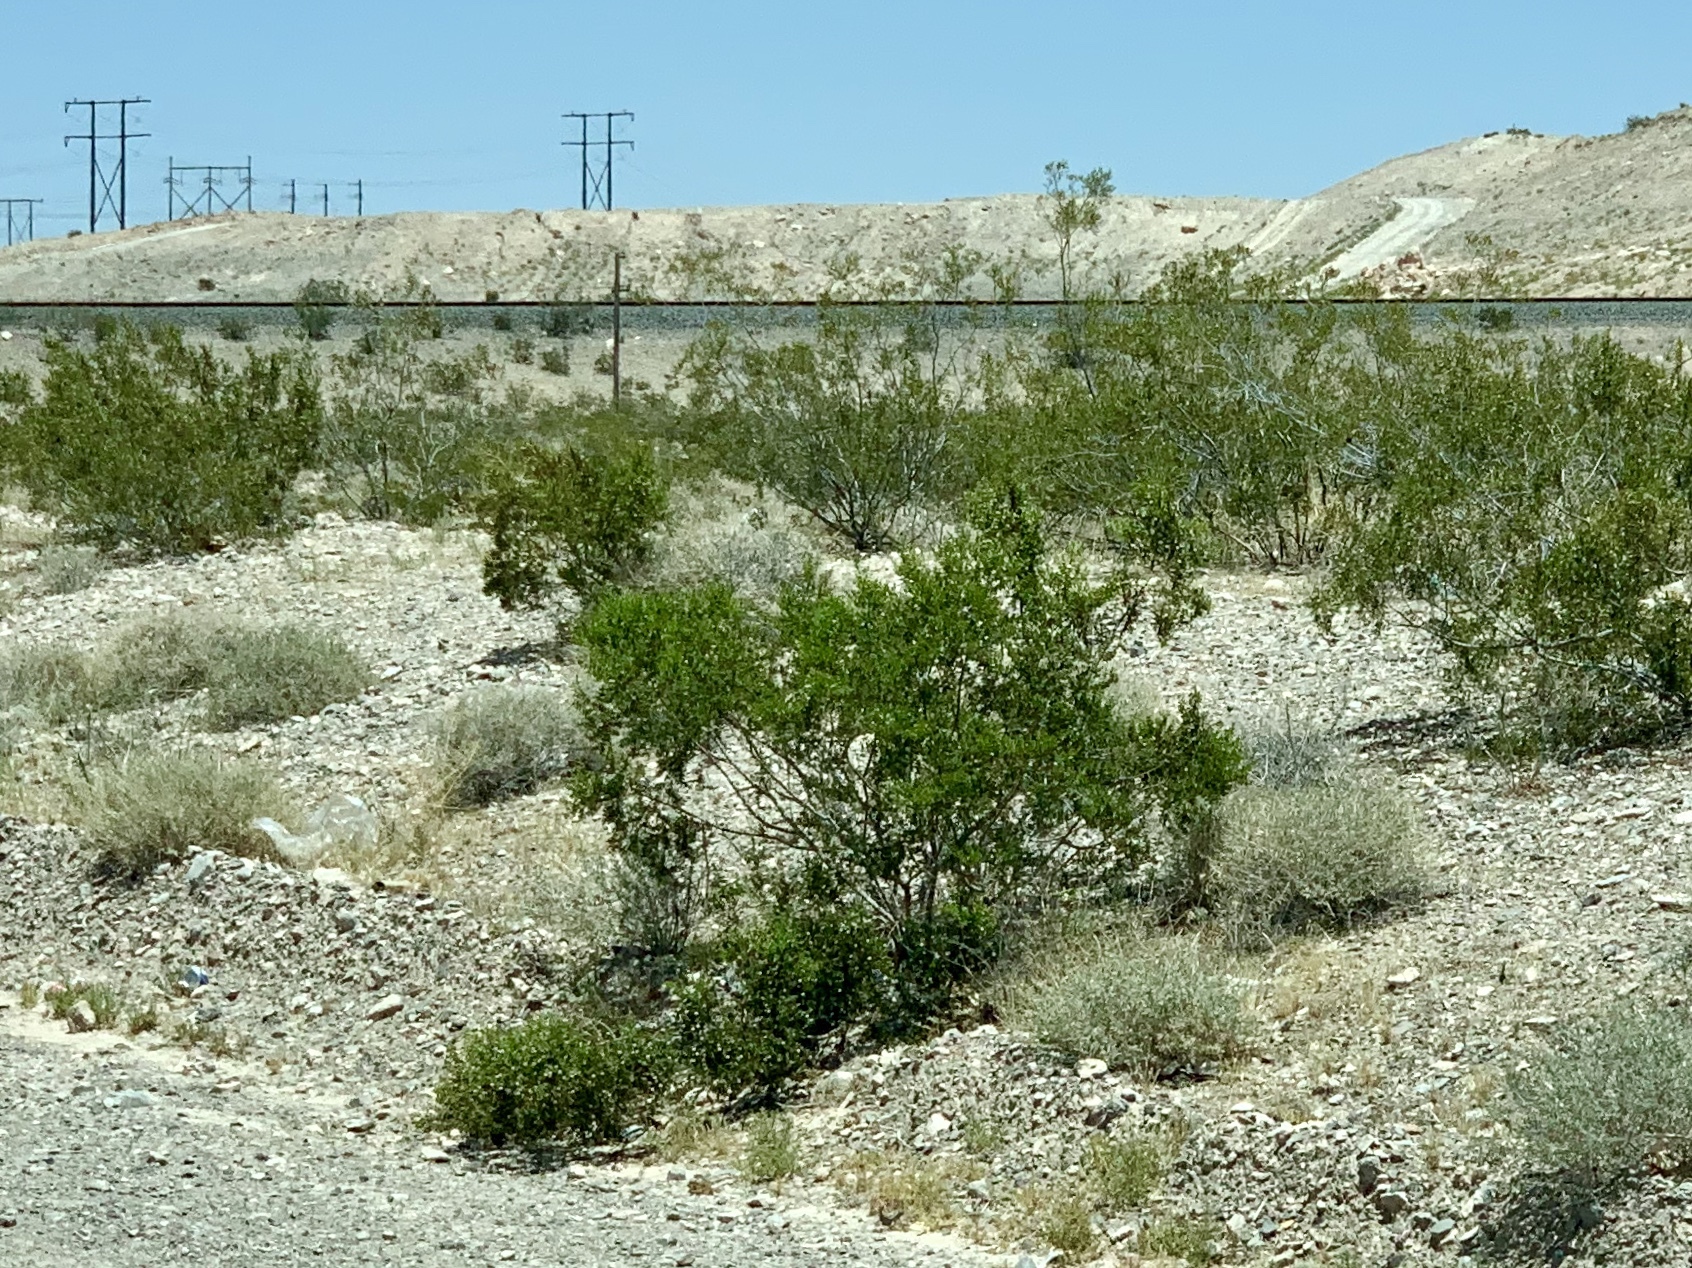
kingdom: Plantae
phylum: Tracheophyta
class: Magnoliopsida
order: Zygophyllales
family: Zygophyllaceae
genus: Larrea
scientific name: Larrea tridentata
